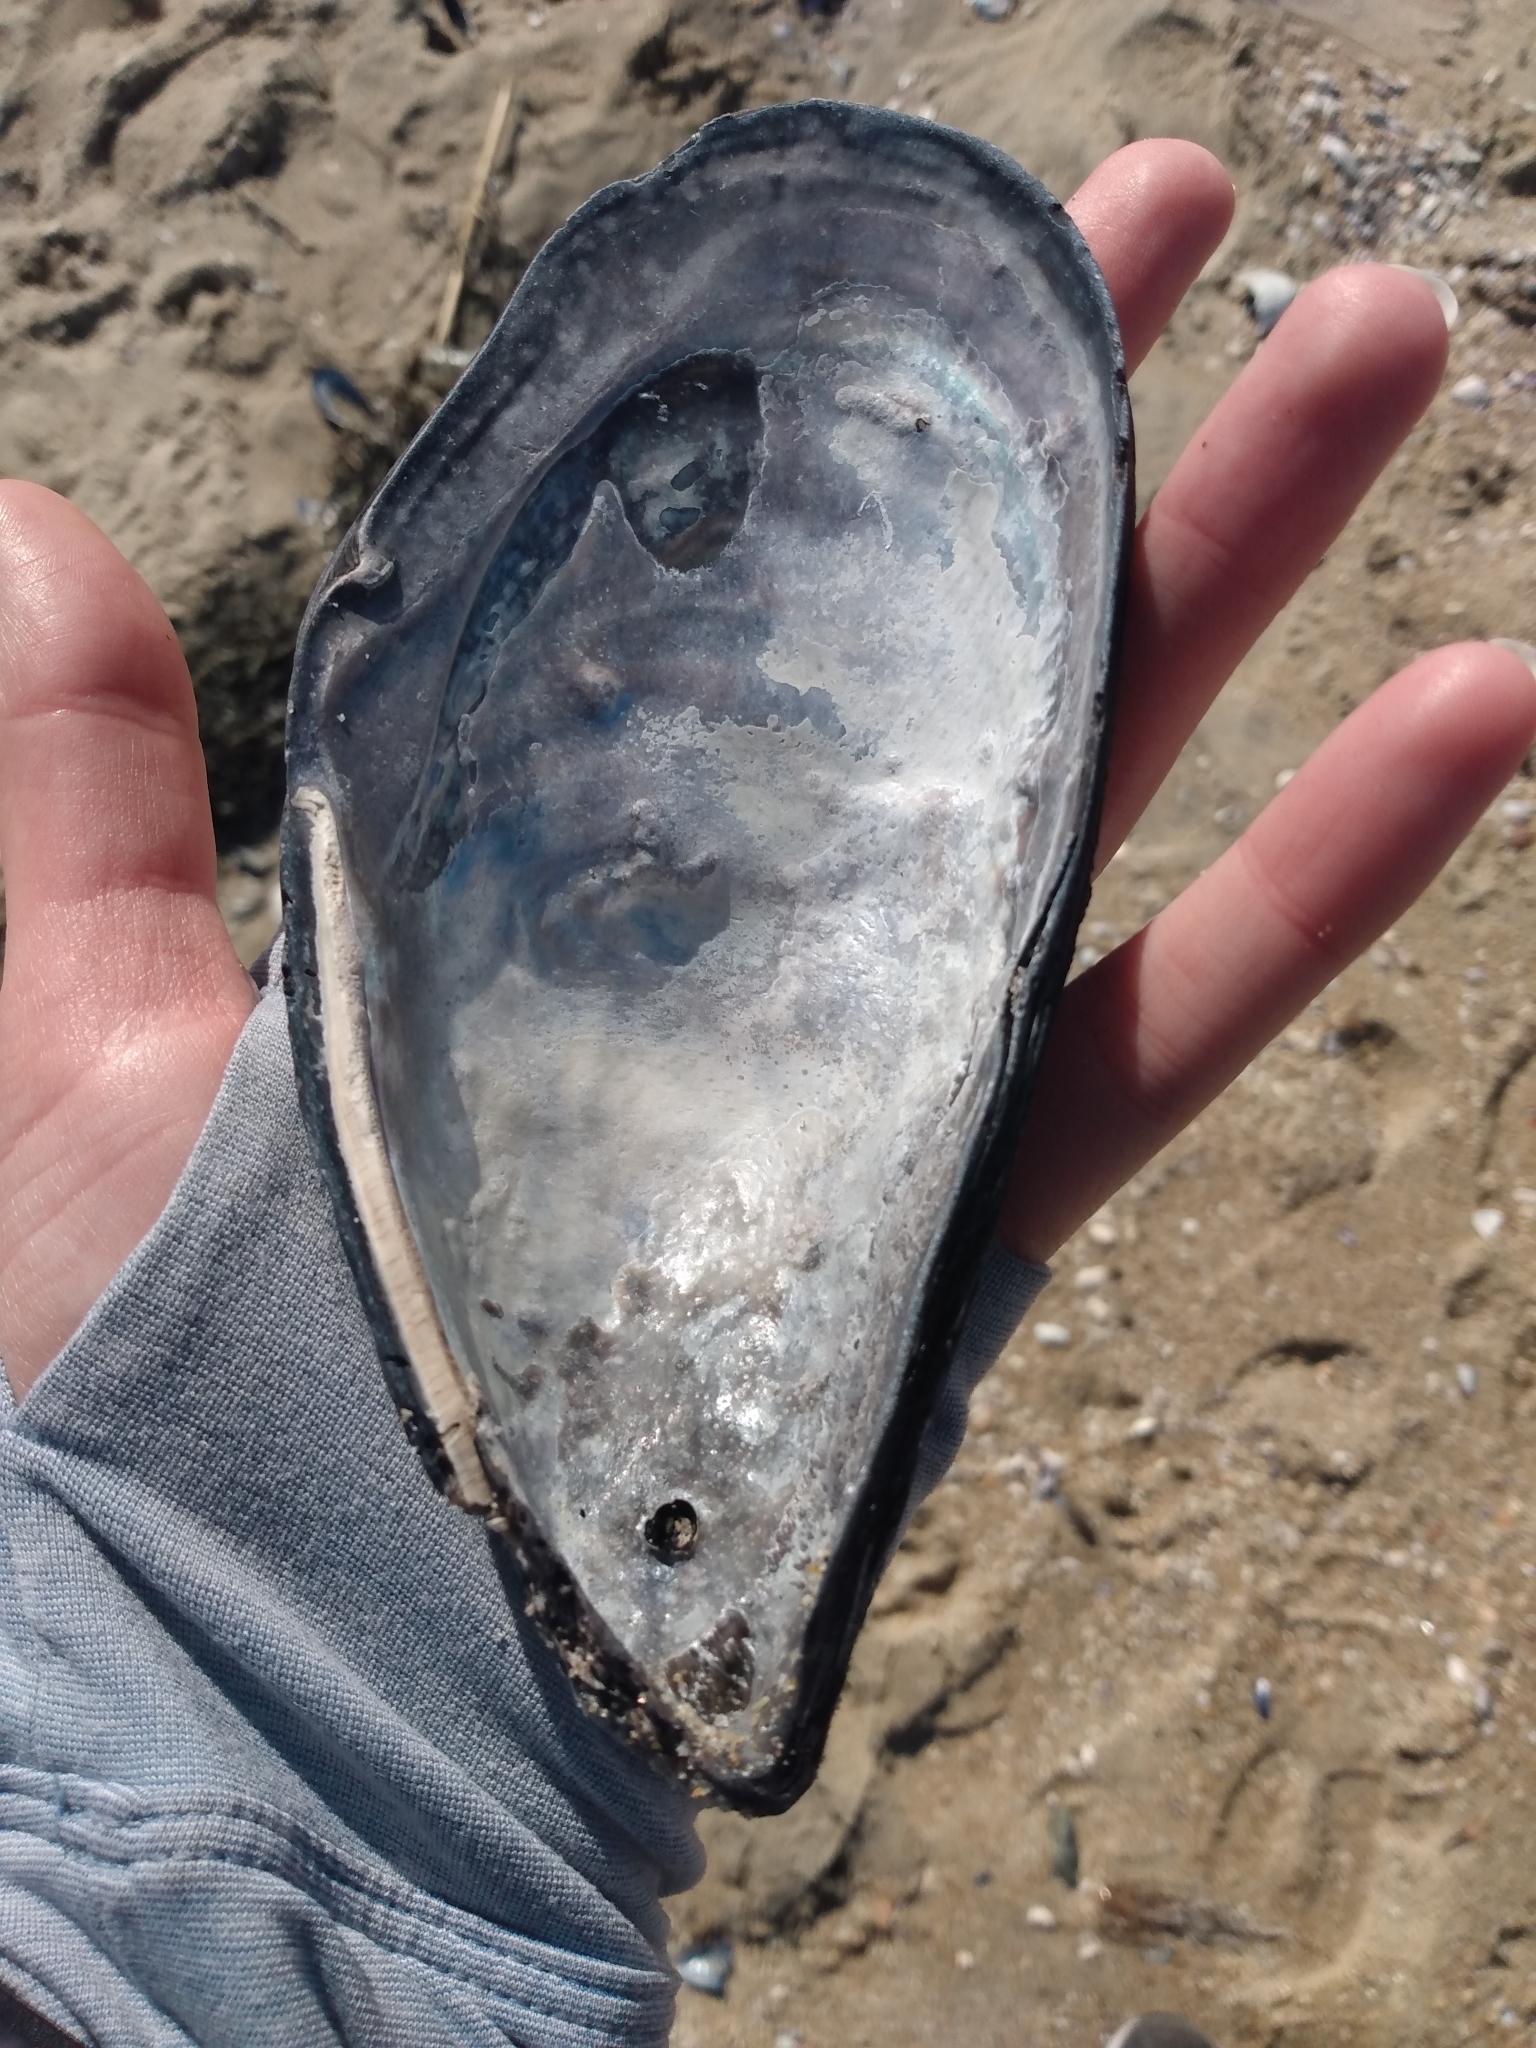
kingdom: Animalia
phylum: Mollusca
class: Bivalvia
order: Mytilida
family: Mytilidae
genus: Mytilus
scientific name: Mytilus californianus
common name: California mussel
